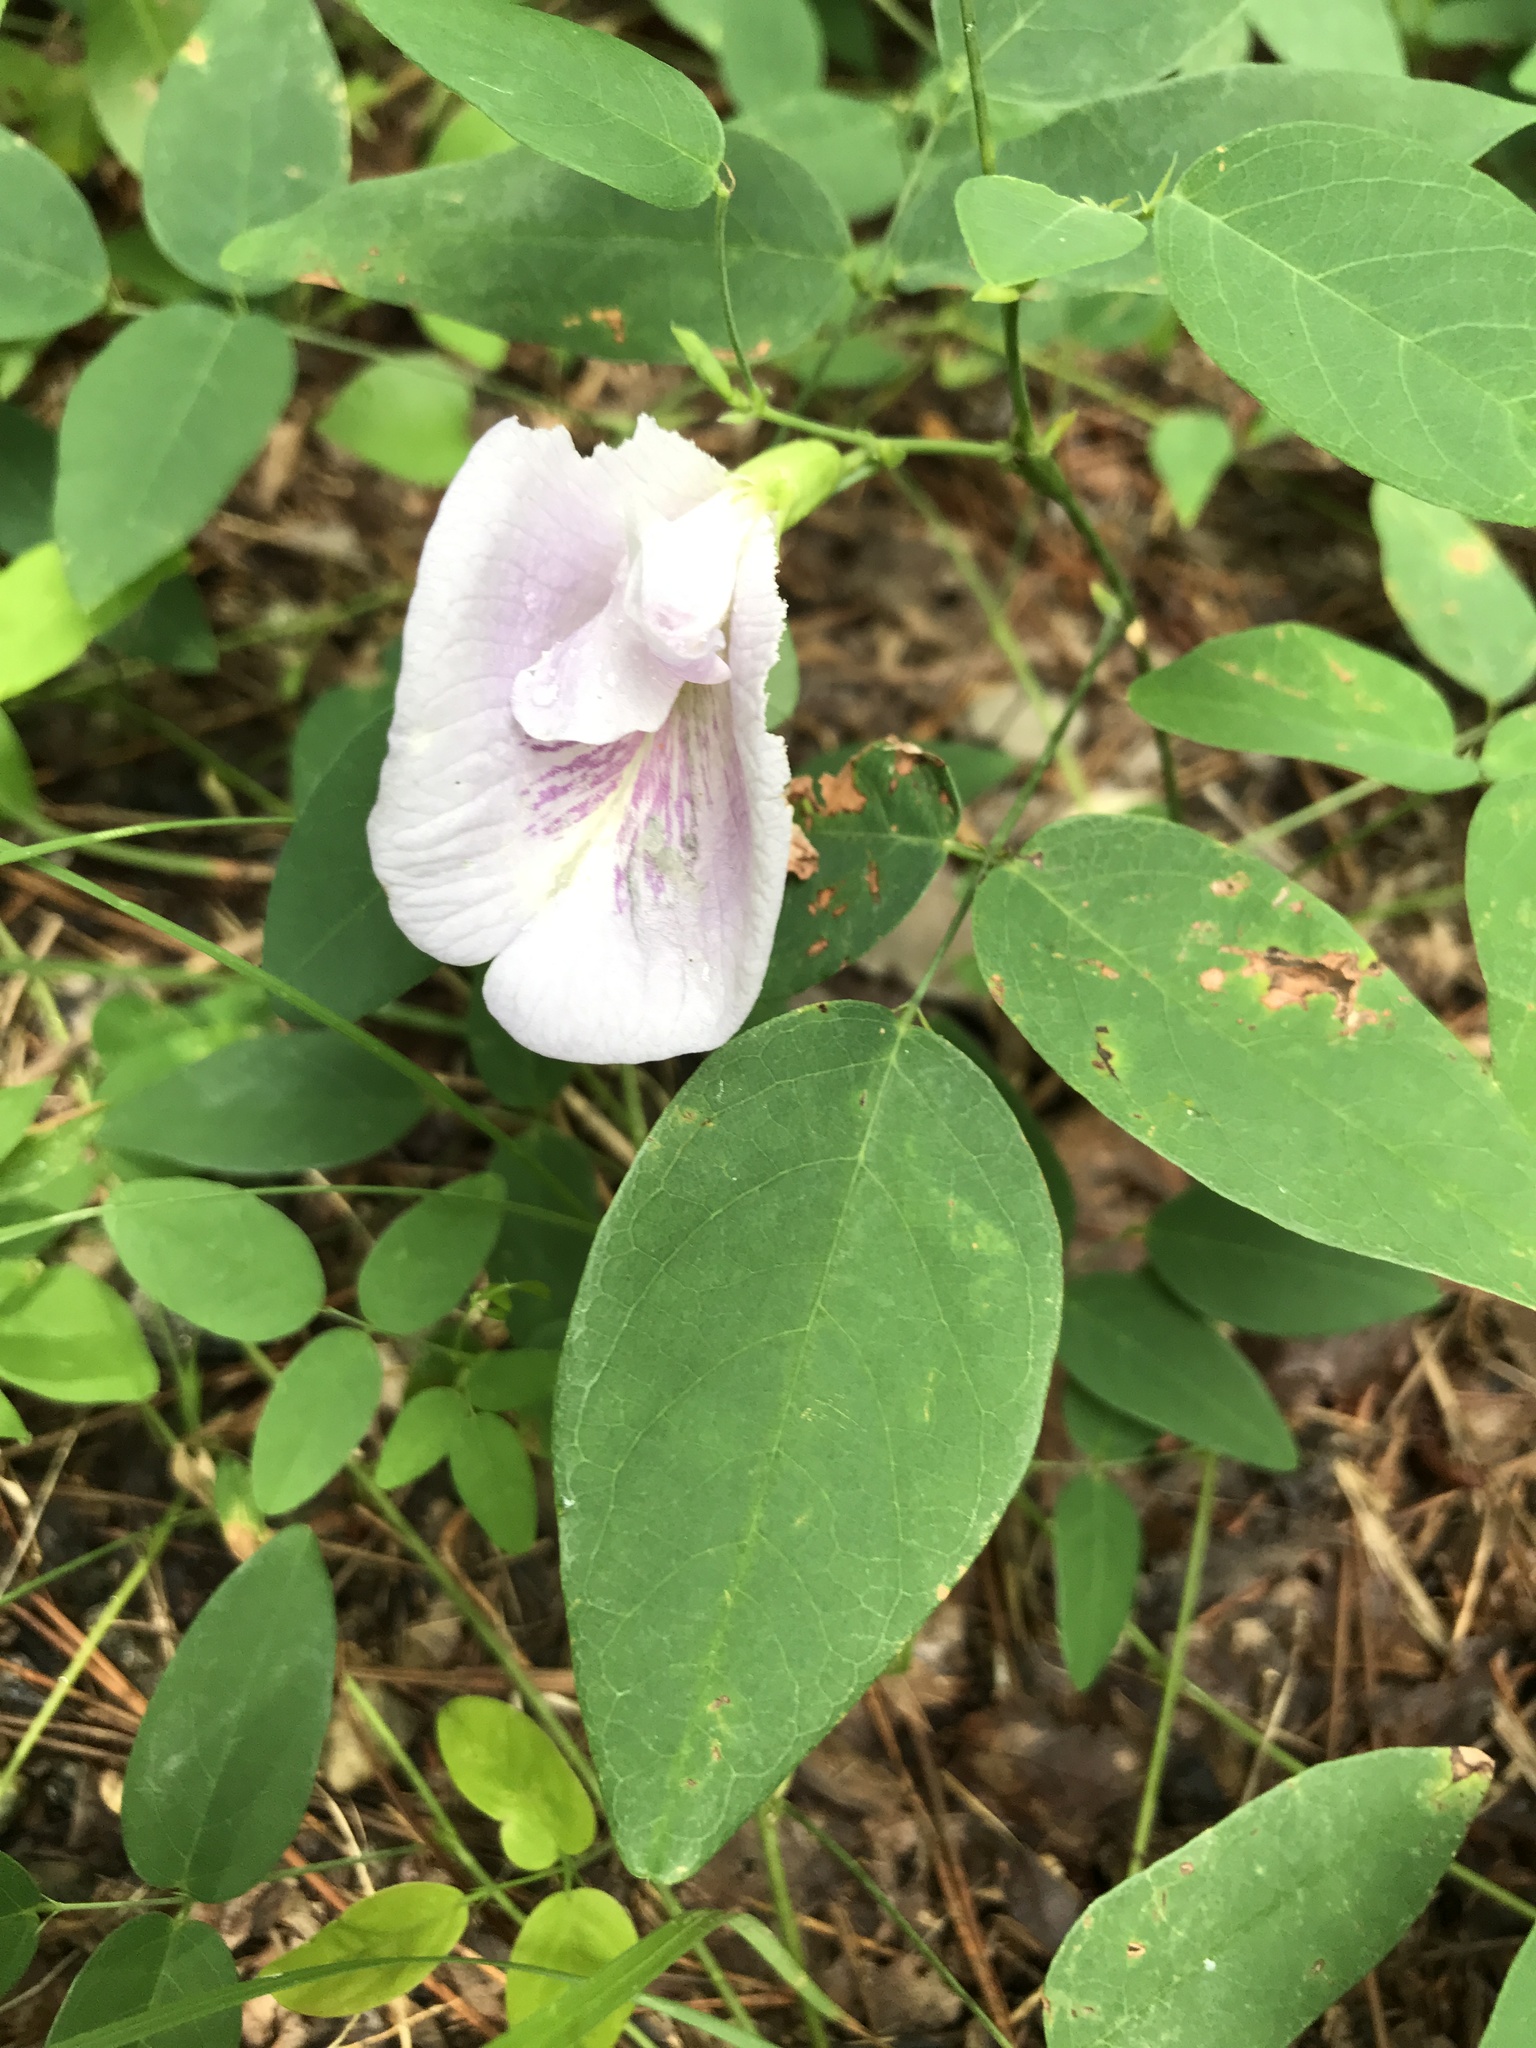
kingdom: Plantae
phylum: Tracheophyta
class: Magnoliopsida
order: Fabales
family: Fabaceae
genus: Clitoria
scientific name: Clitoria mariana
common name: Butterfly-pea
